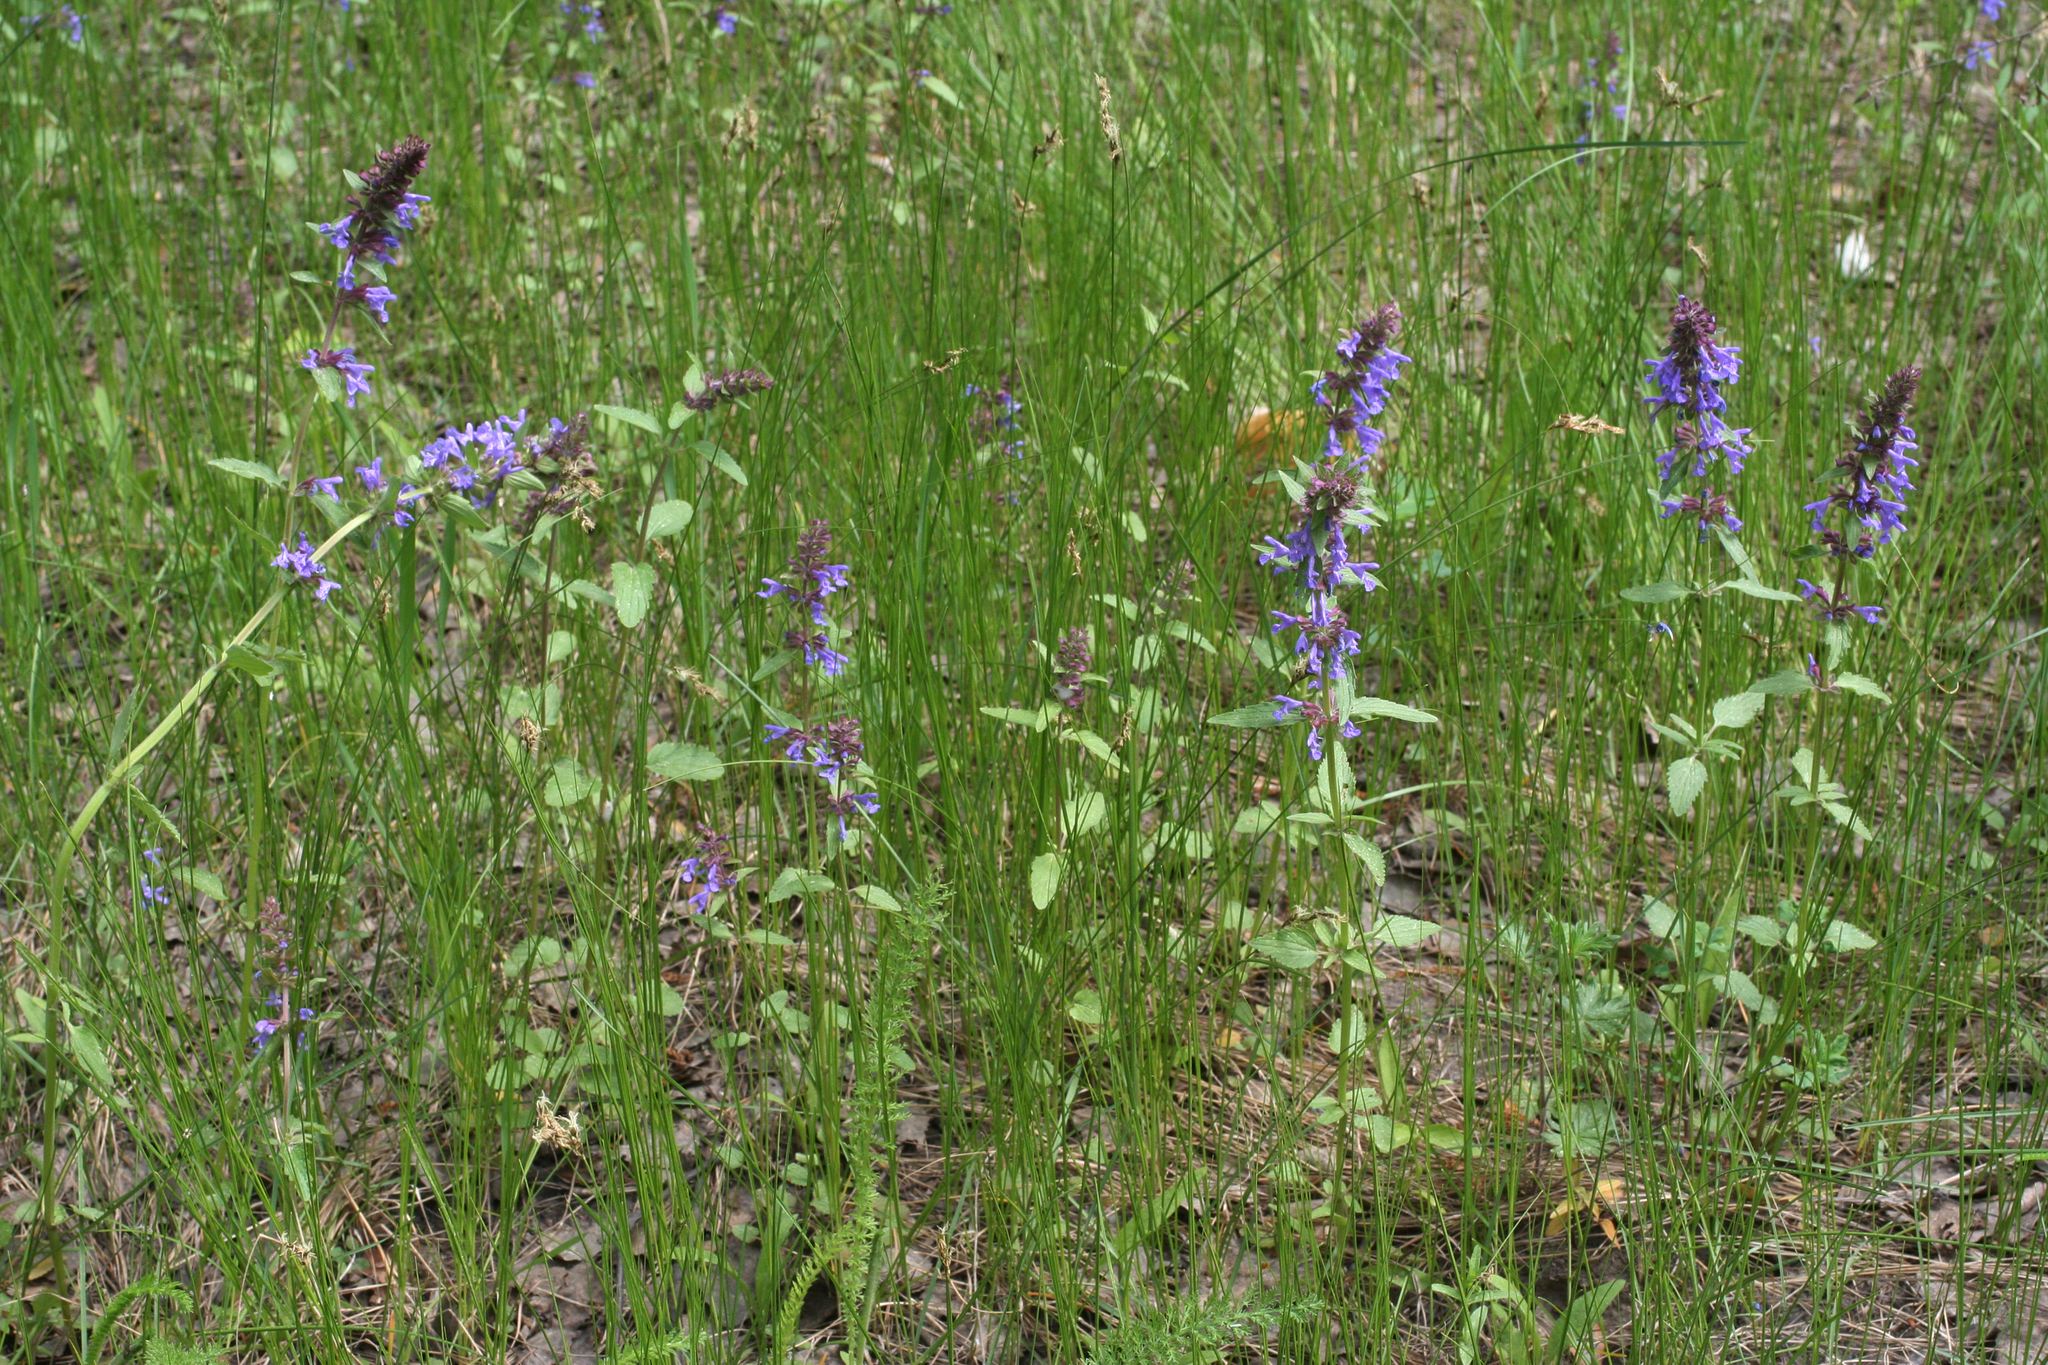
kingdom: Plantae
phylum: Tracheophyta
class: Magnoliopsida
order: Lamiales
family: Lamiaceae
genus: Dracocephalum
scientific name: Dracocephalum nutans
